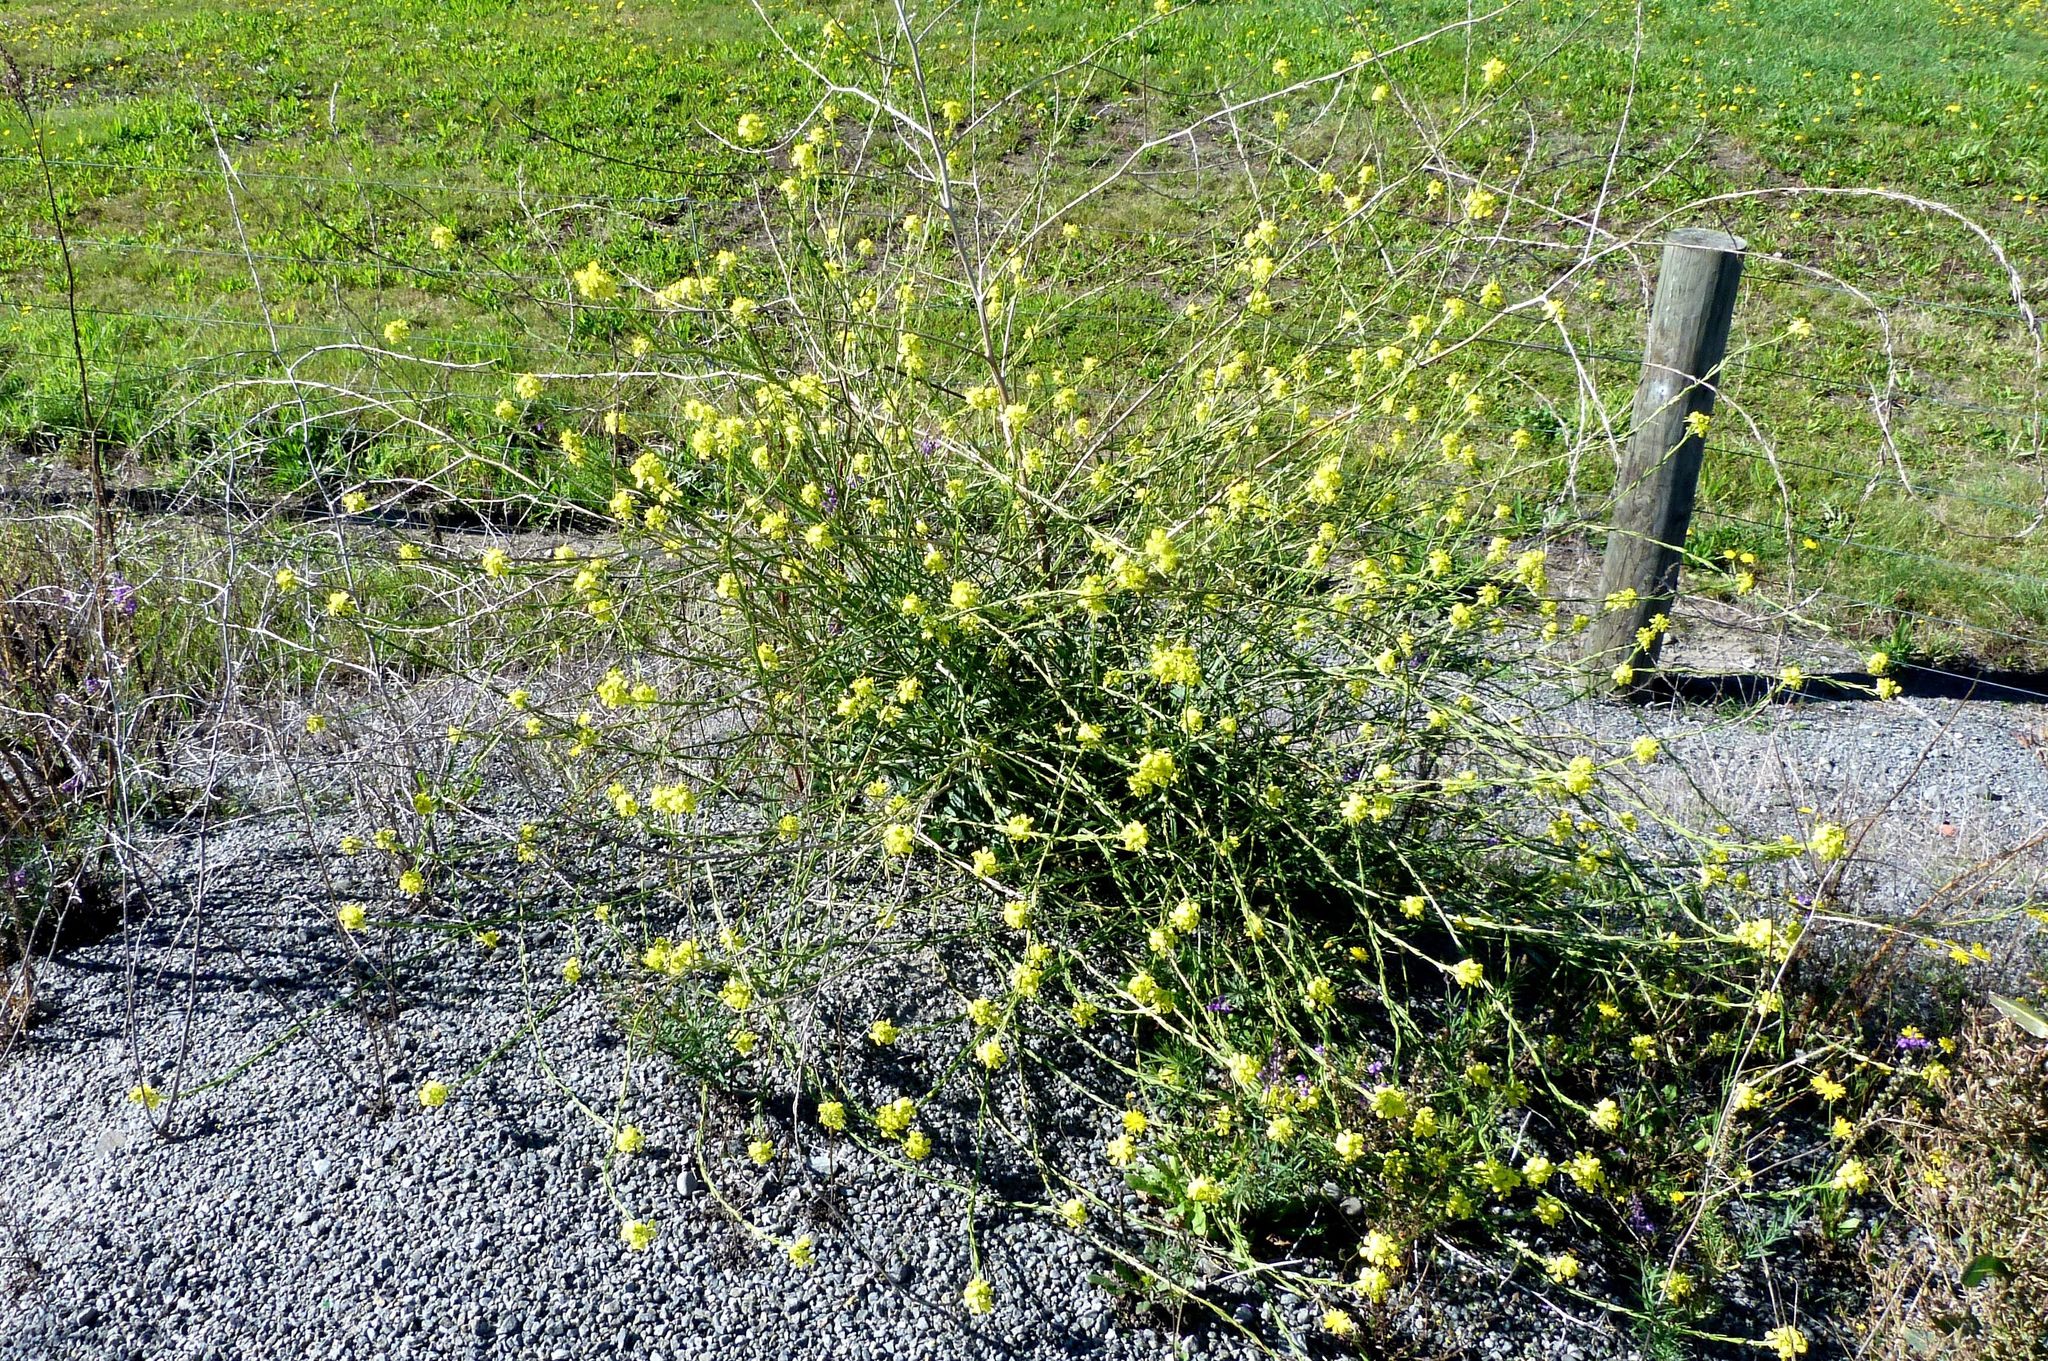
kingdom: Plantae
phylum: Tracheophyta
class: Magnoliopsida
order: Brassicales
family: Brassicaceae
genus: Sisymbrium
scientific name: Sisymbrium officinale
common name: Hedge mustard
